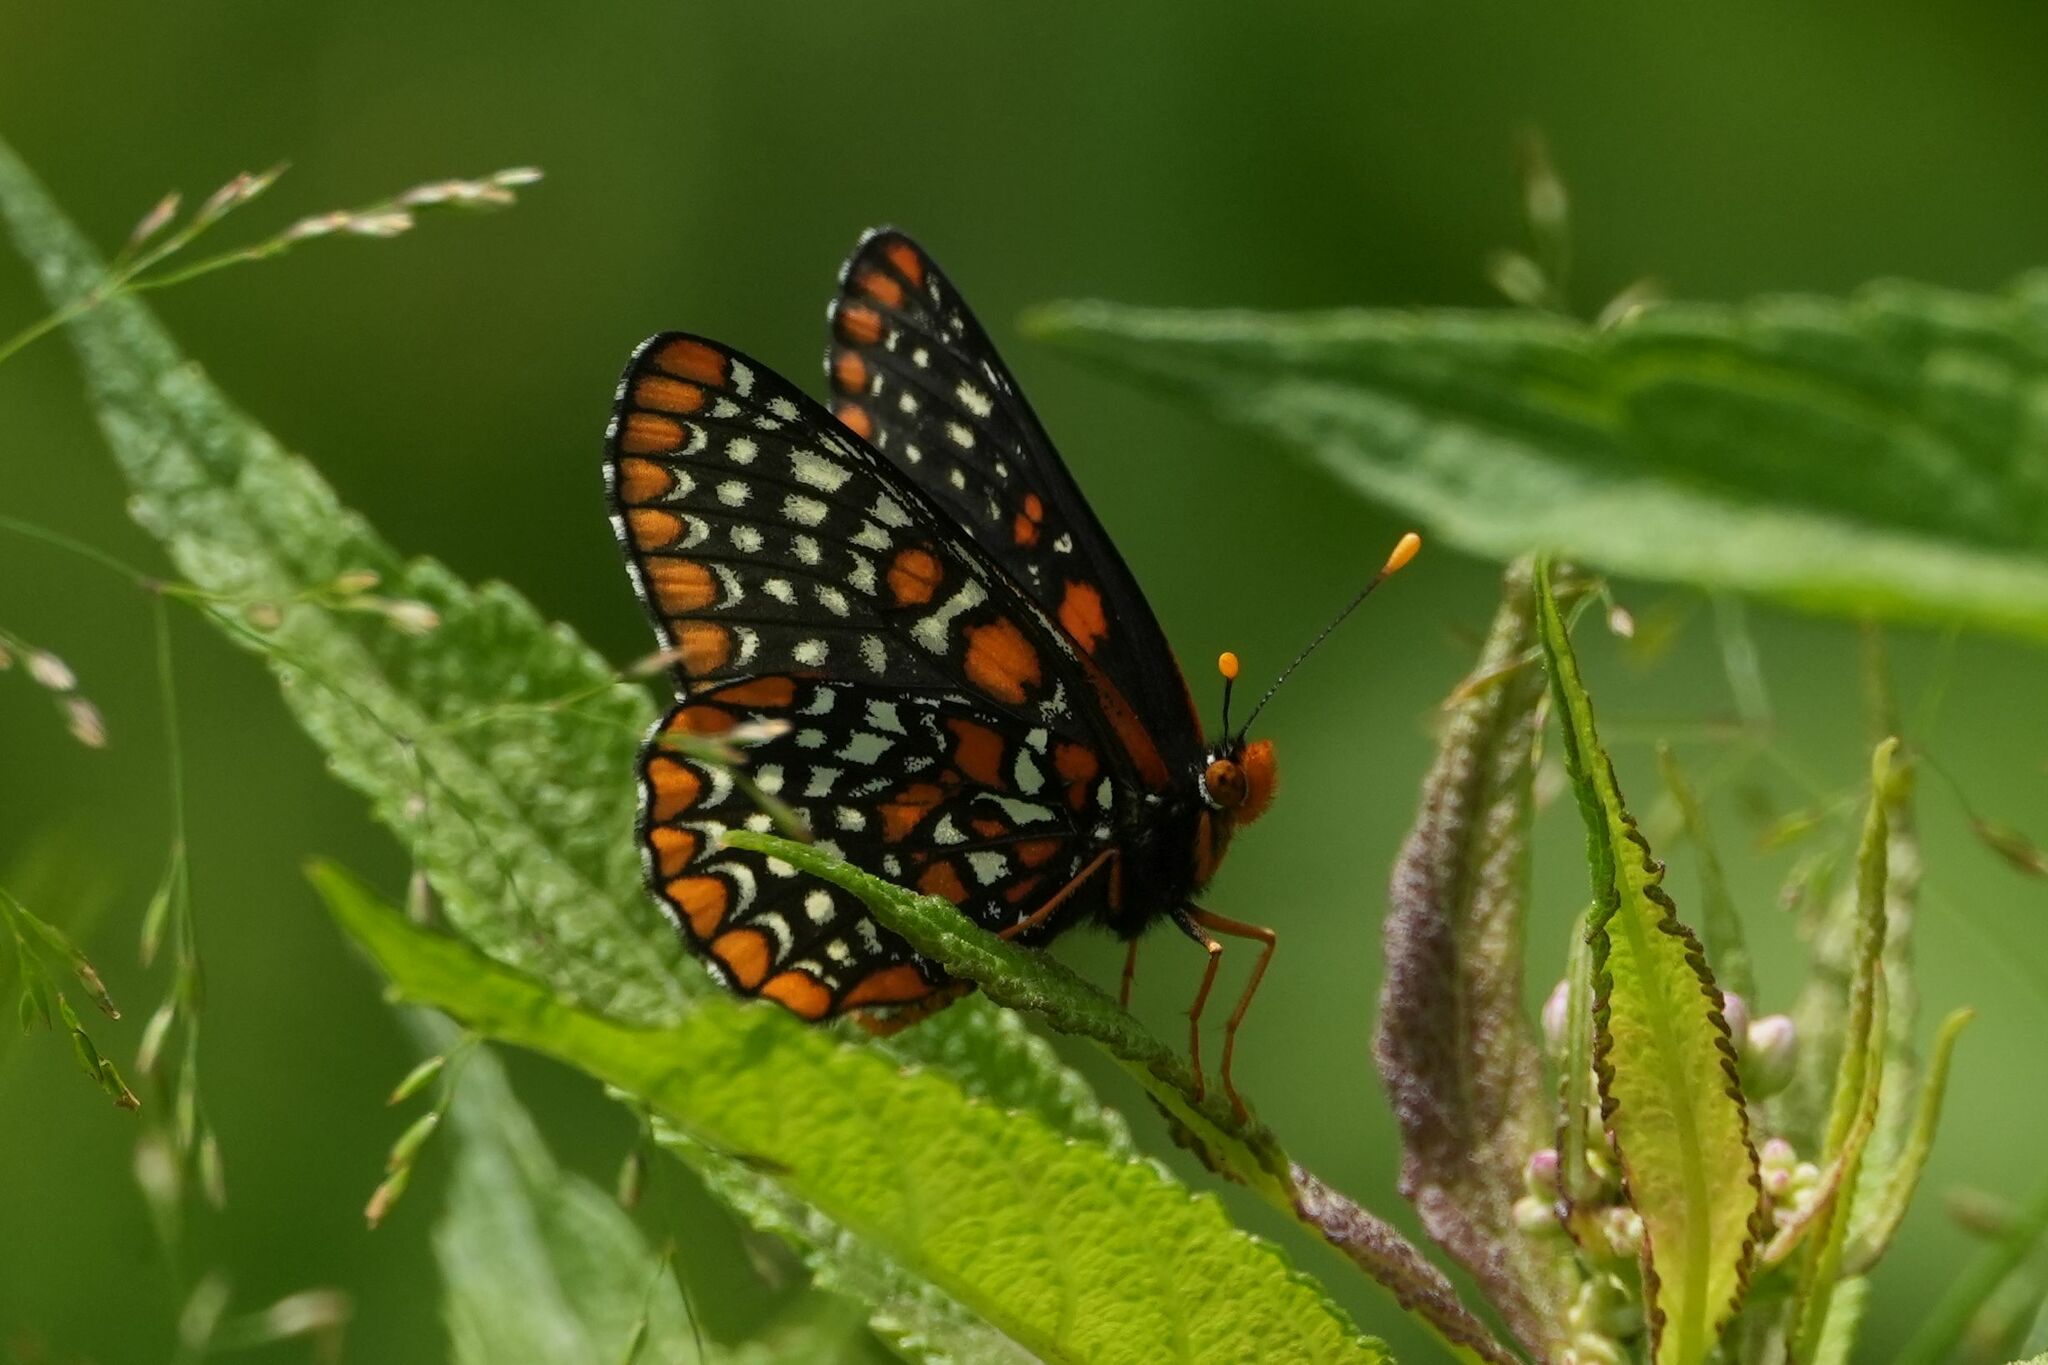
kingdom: Animalia
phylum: Arthropoda
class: Insecta
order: Lepidoptera
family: Nymphalidae
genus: Euphydryas
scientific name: Euphydryas phaeton
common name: Baltimore checkerspot
